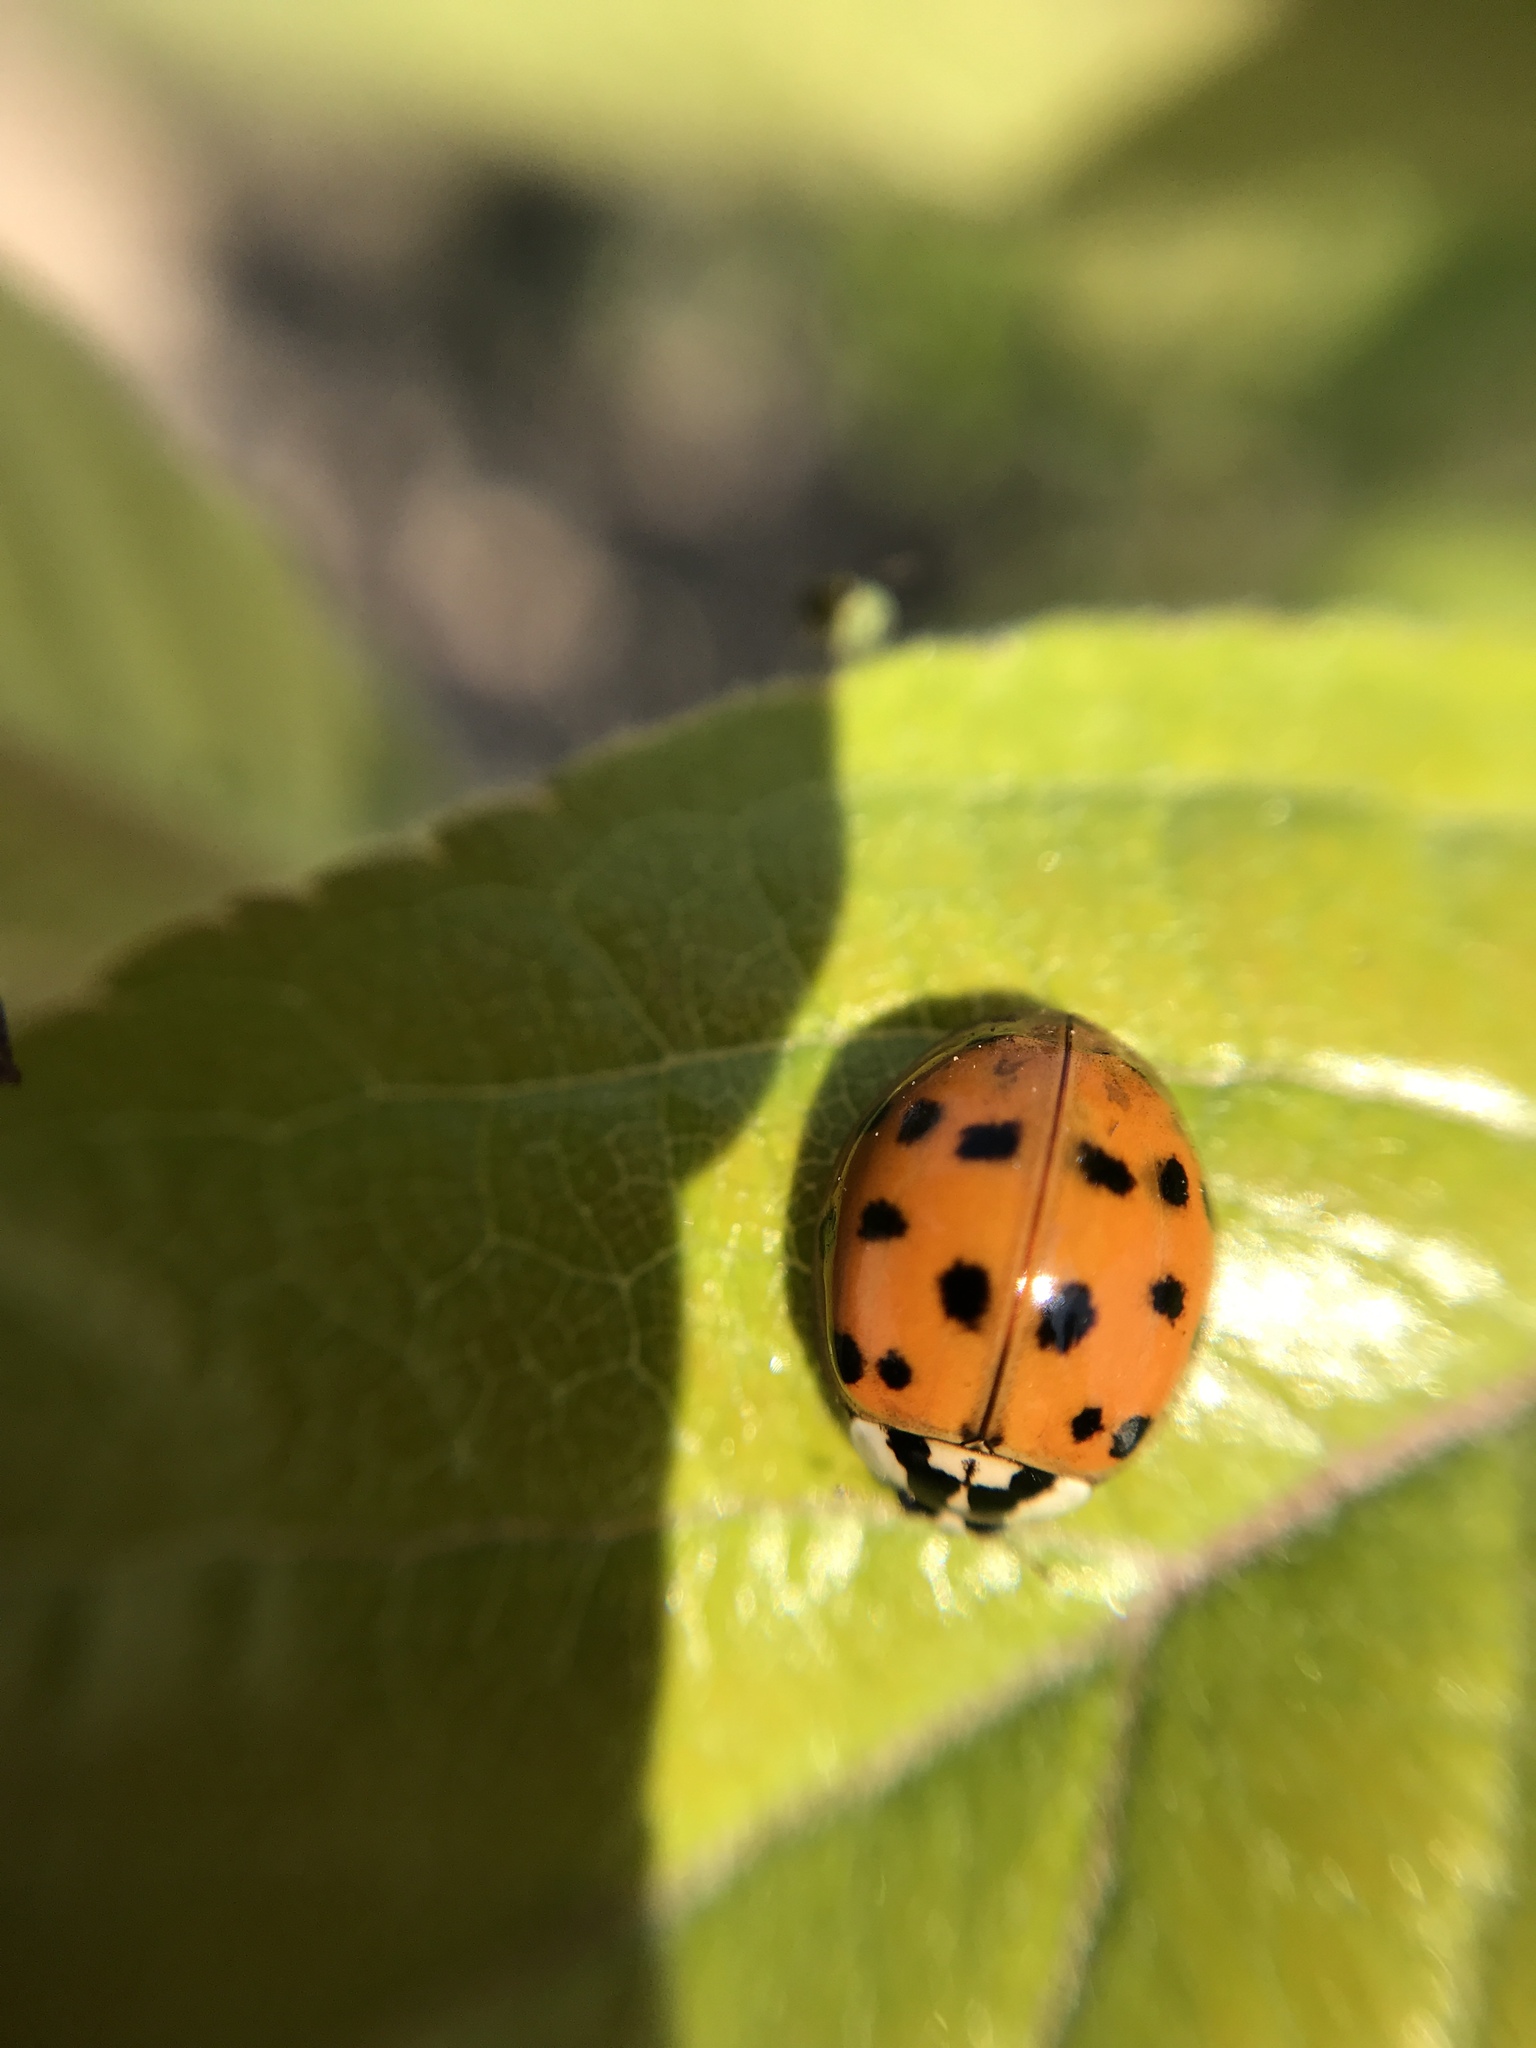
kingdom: Animalia
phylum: Arthropoda
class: Insecta
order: Coleoptera
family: Coccinellidae
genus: Harmonia
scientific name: Harmonia axyridis
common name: Harlequin ladybird
